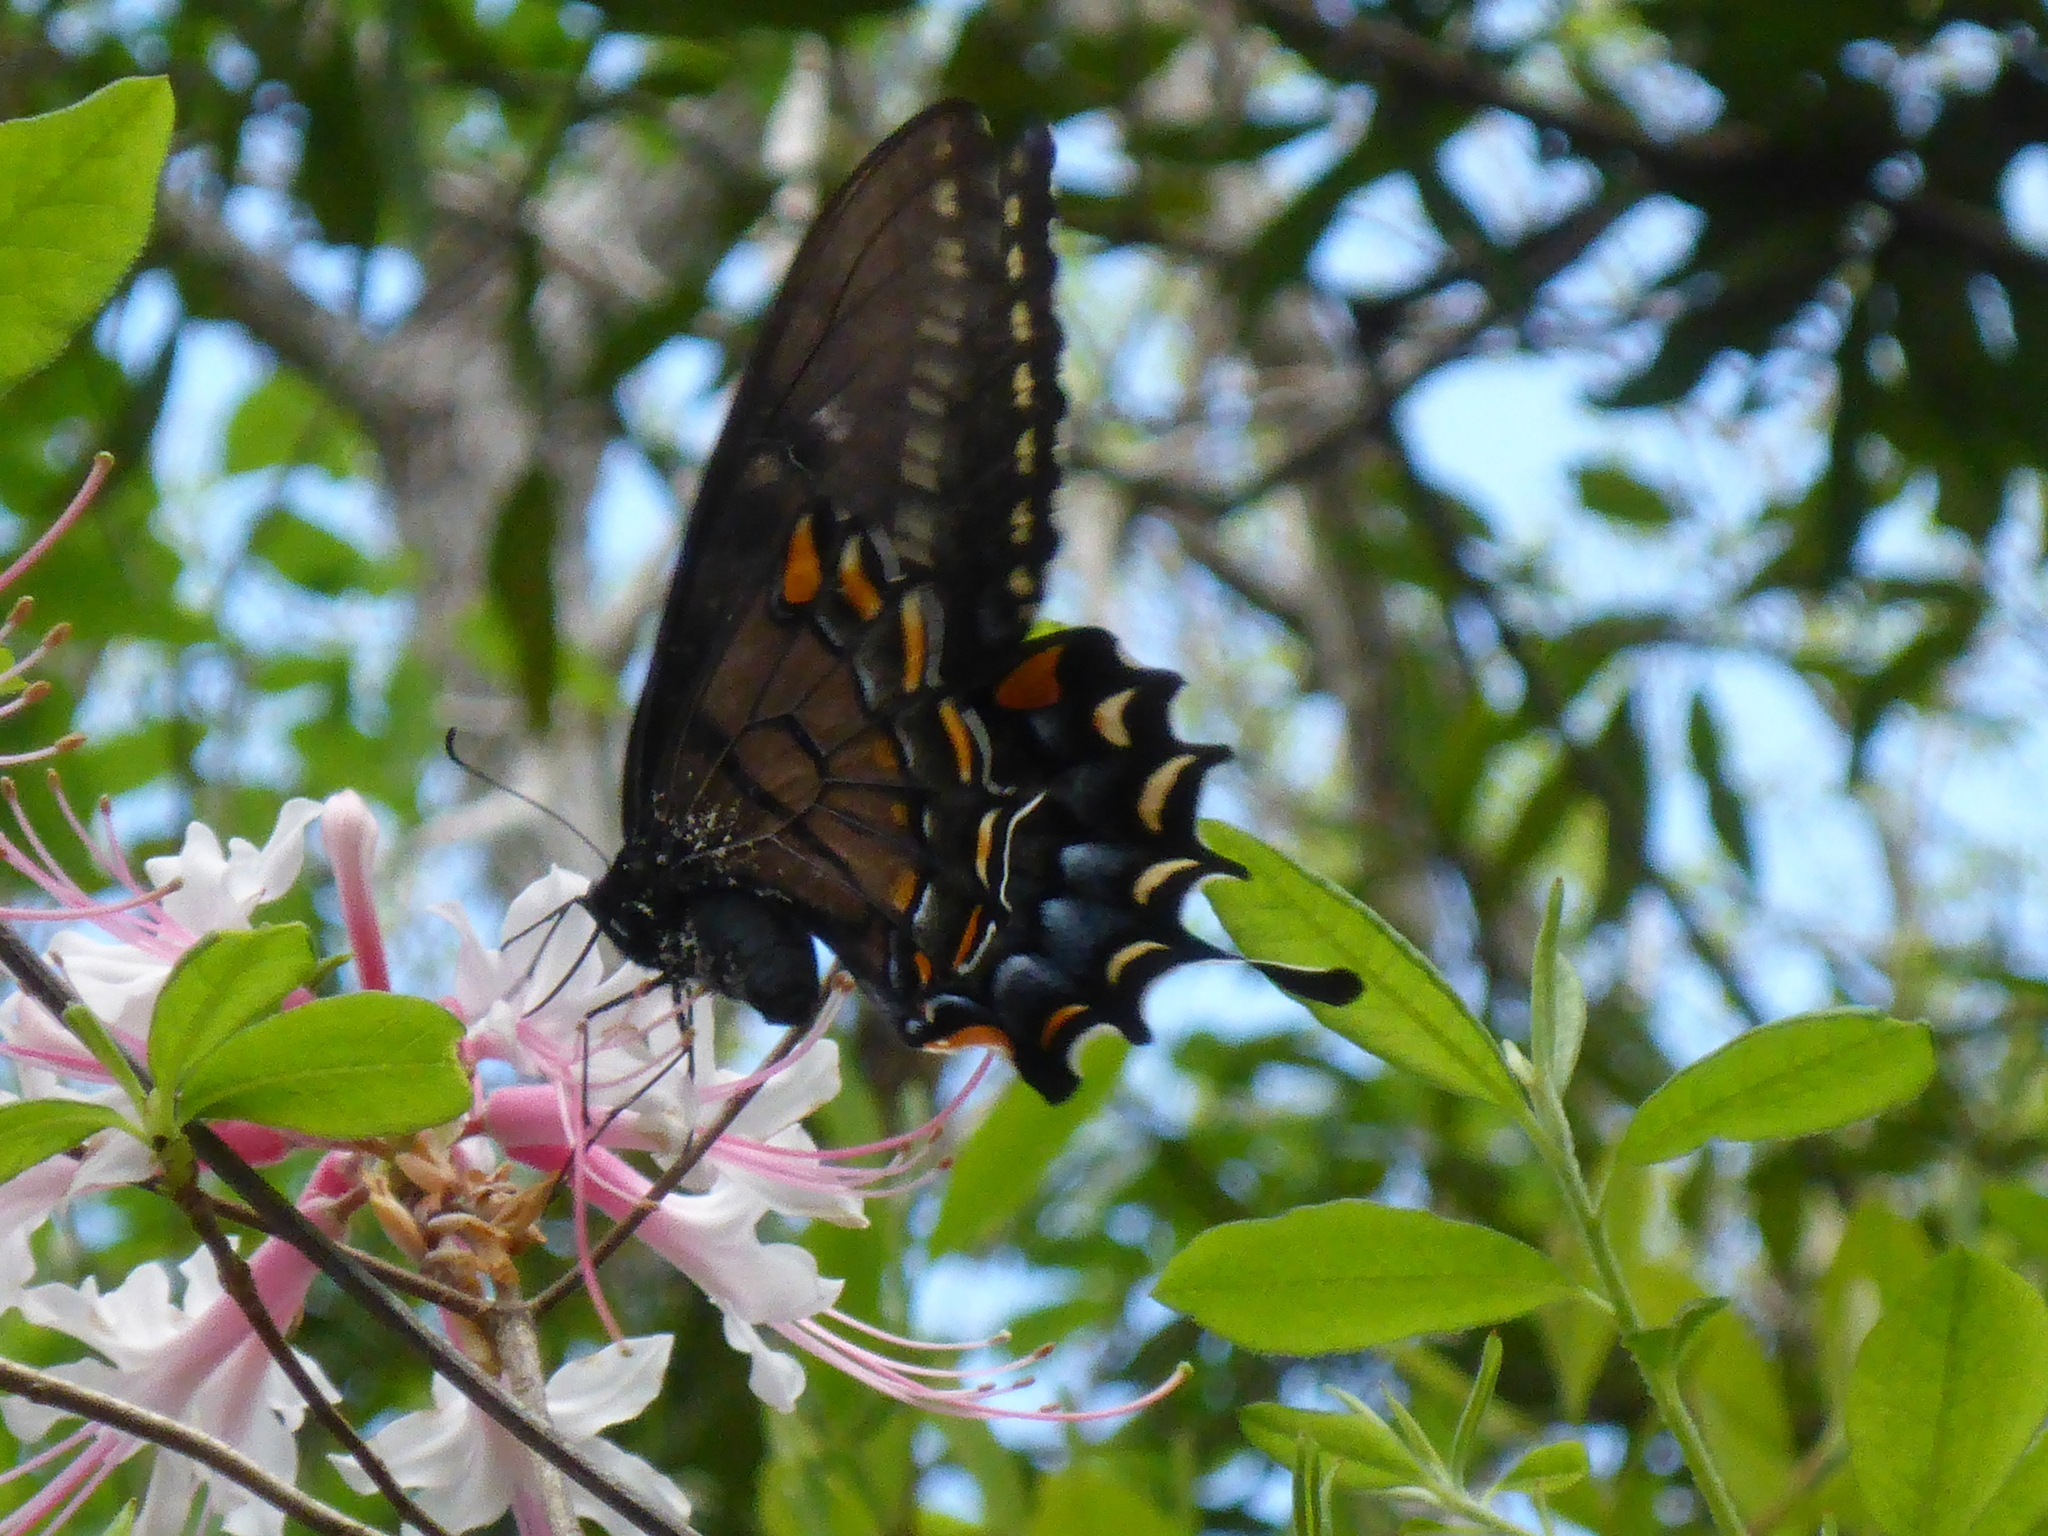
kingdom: Animalia
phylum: Arthropoda
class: Insecta
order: Lepidoptera
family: Papilionidae
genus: Papilio
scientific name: Papilio glaucus
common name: Tiger swallowtail
